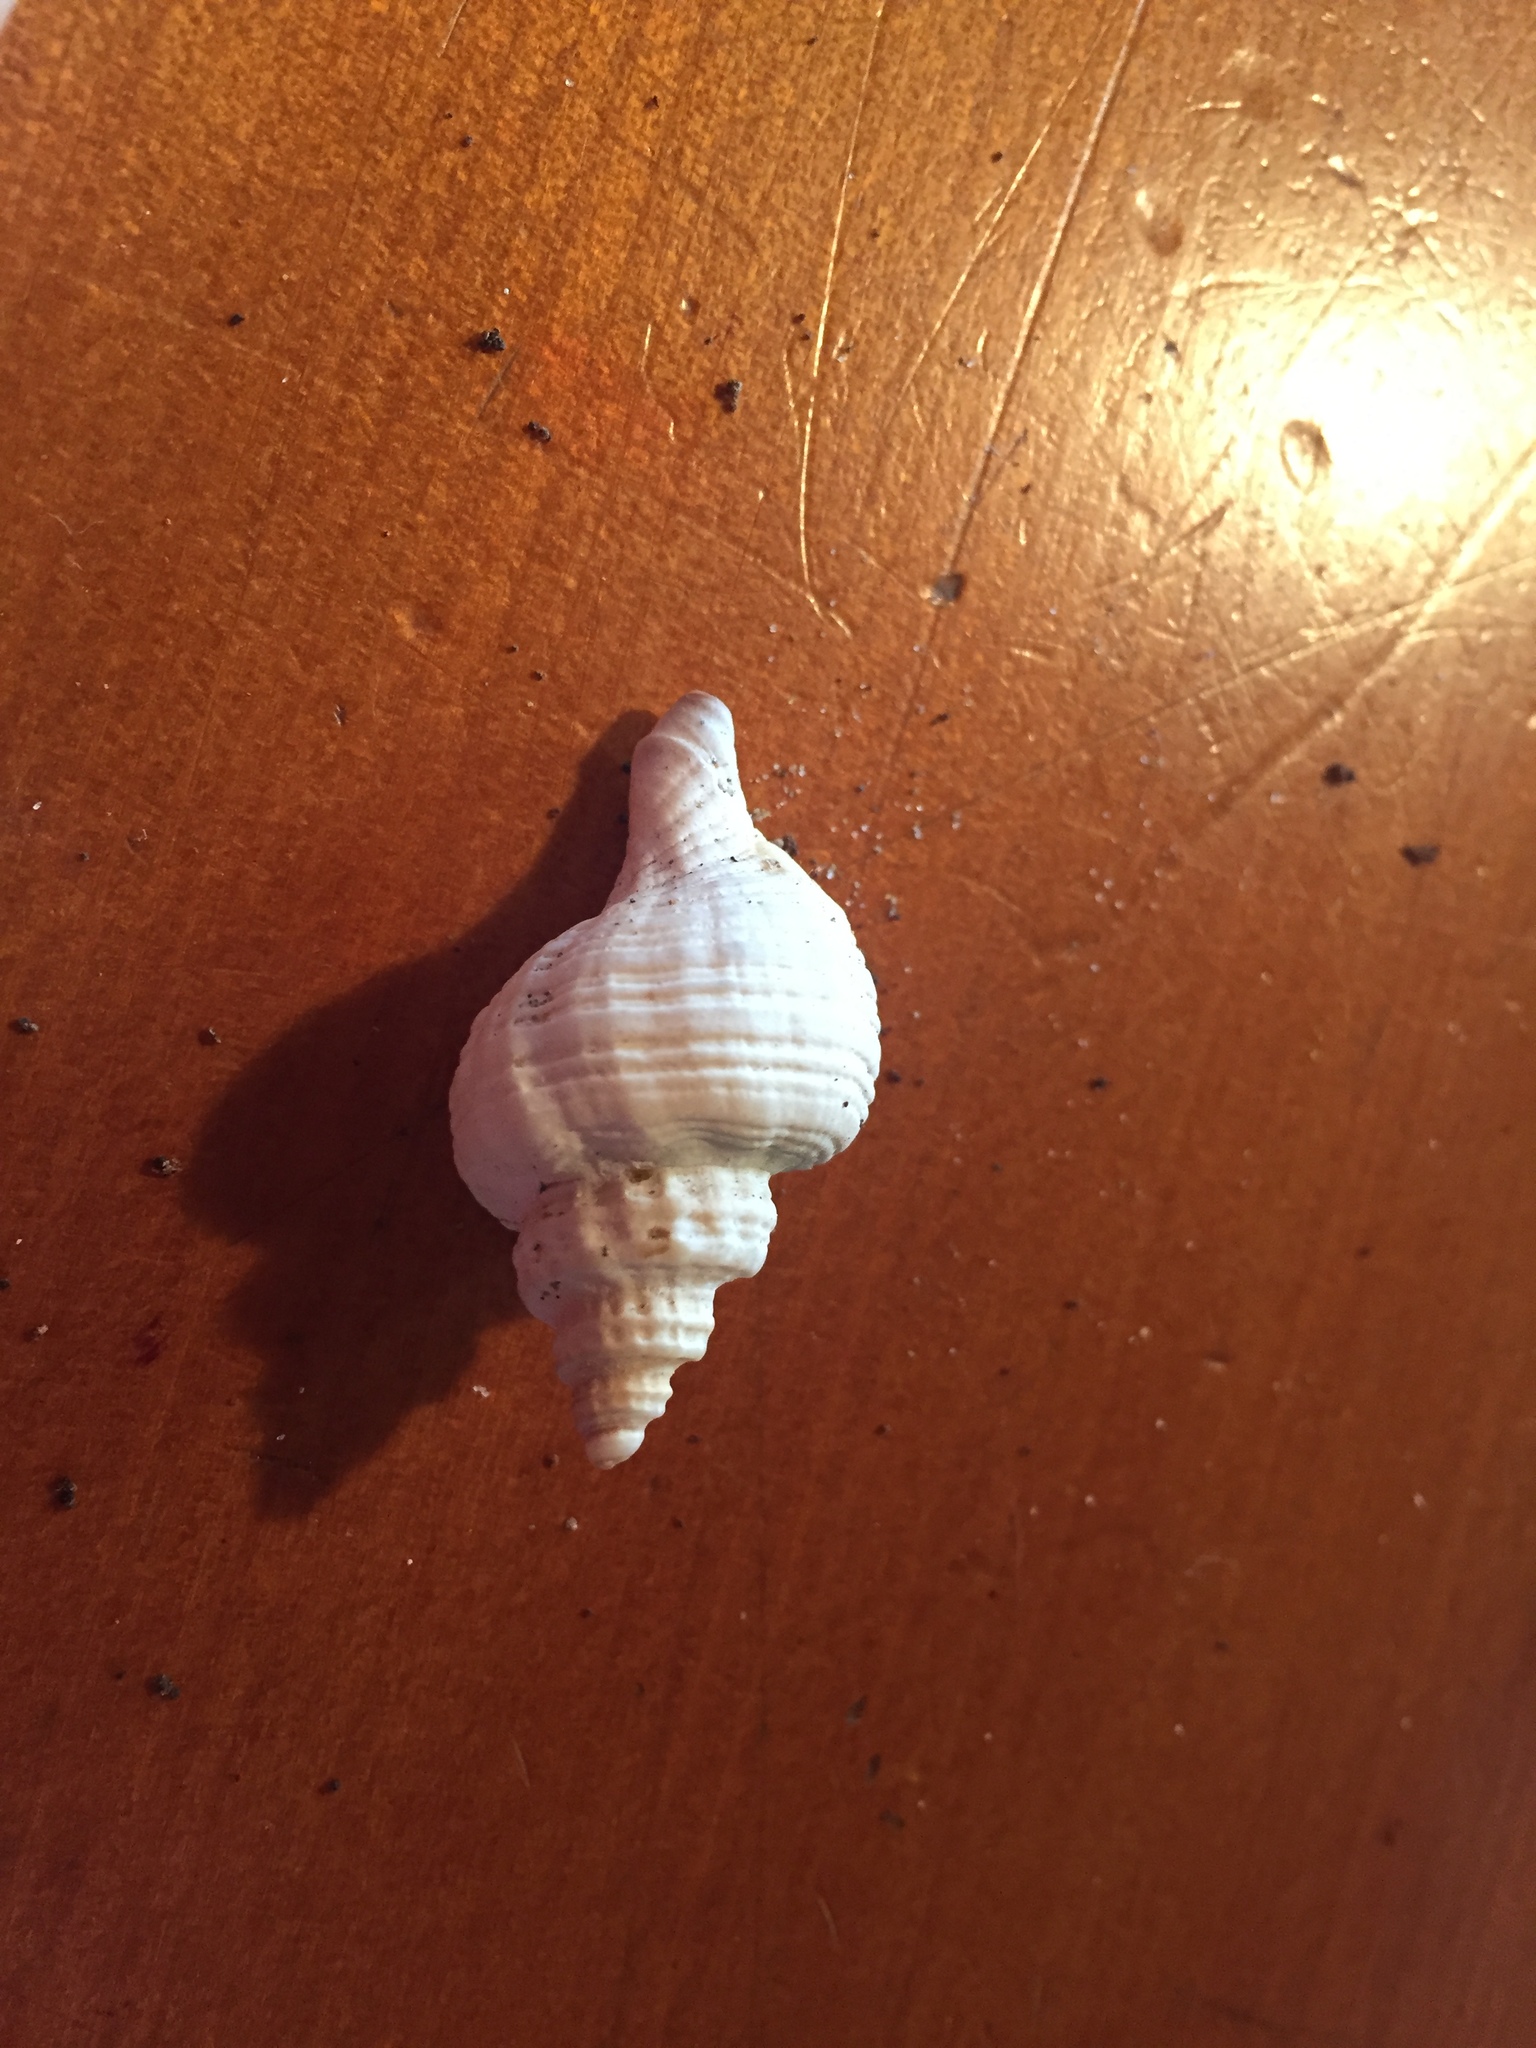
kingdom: Animalia
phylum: Mollusca
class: Gastropoda
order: Neogastropoda
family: Muricidae
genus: Zeatrophon
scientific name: Zeatrophon ambiguus
